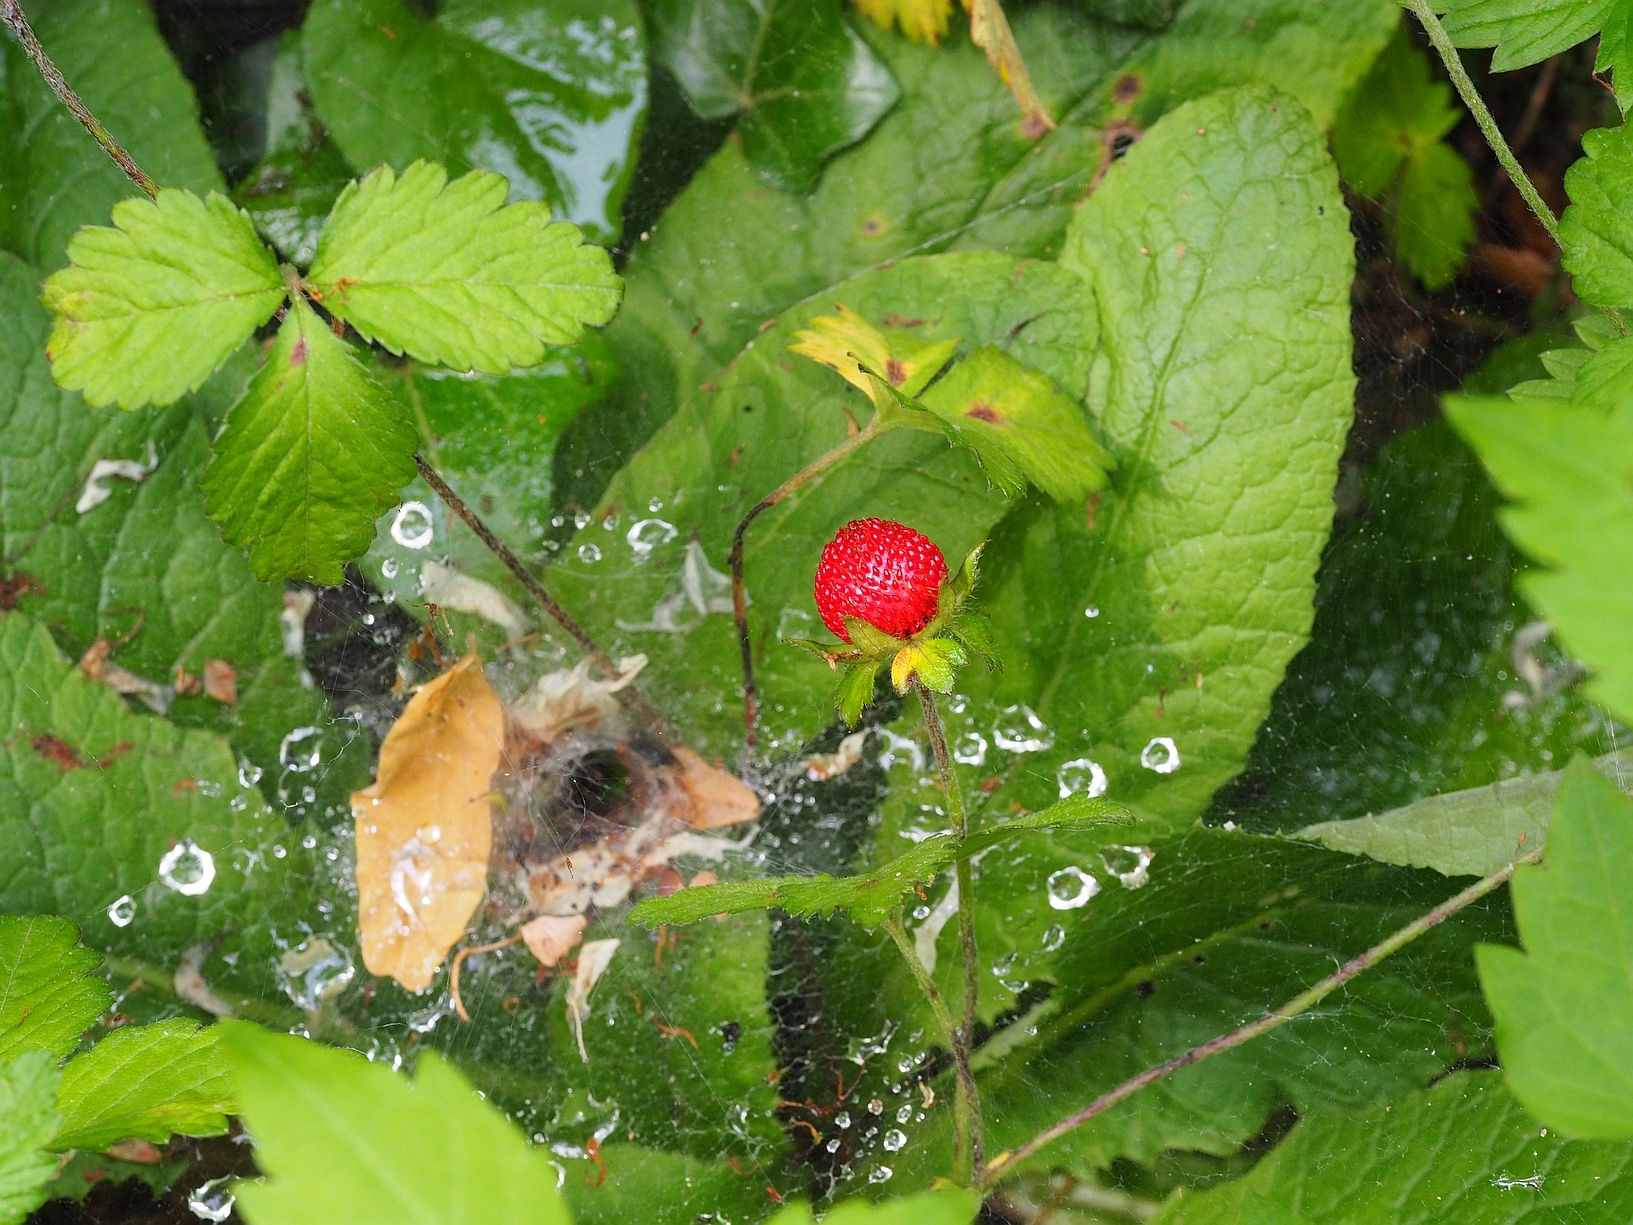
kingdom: Plantae
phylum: Tracheophyta
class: Magnoliopsida
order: Rosales
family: Rosaceae
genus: Potentilla
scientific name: Potentilla indica
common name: Yellow-flowered strawberry
